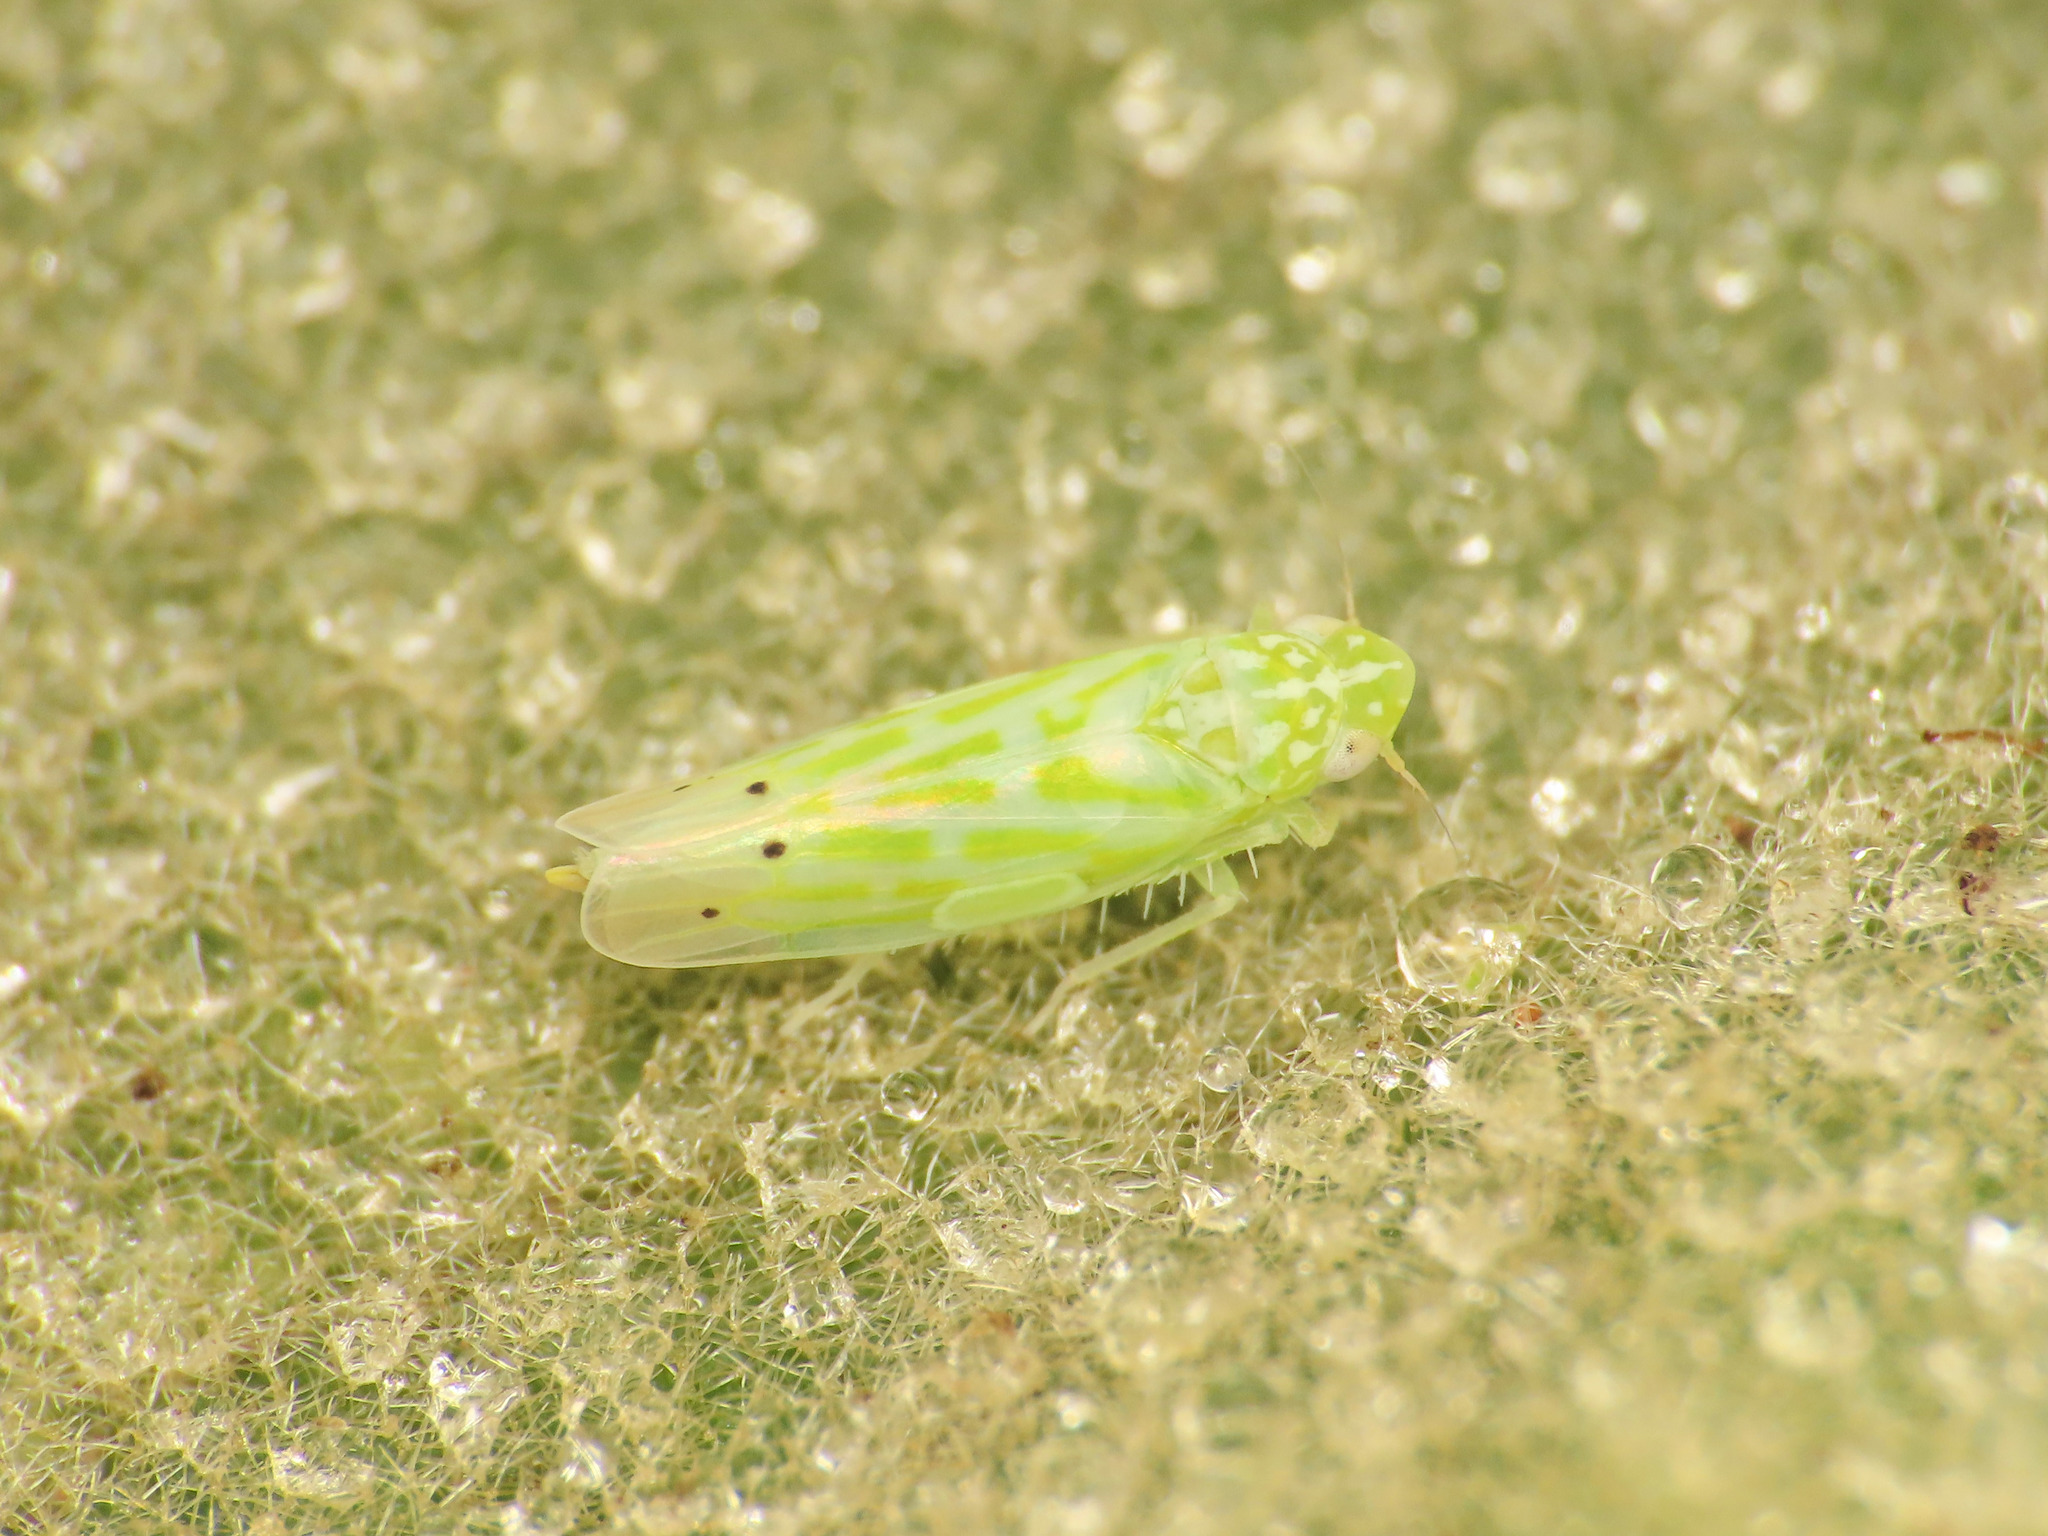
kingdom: Animalia
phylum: Arthropoda
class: Insecta
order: Hemiptera
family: Cicadellidae
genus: Micantulina
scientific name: Micantulina stigmatipennis
